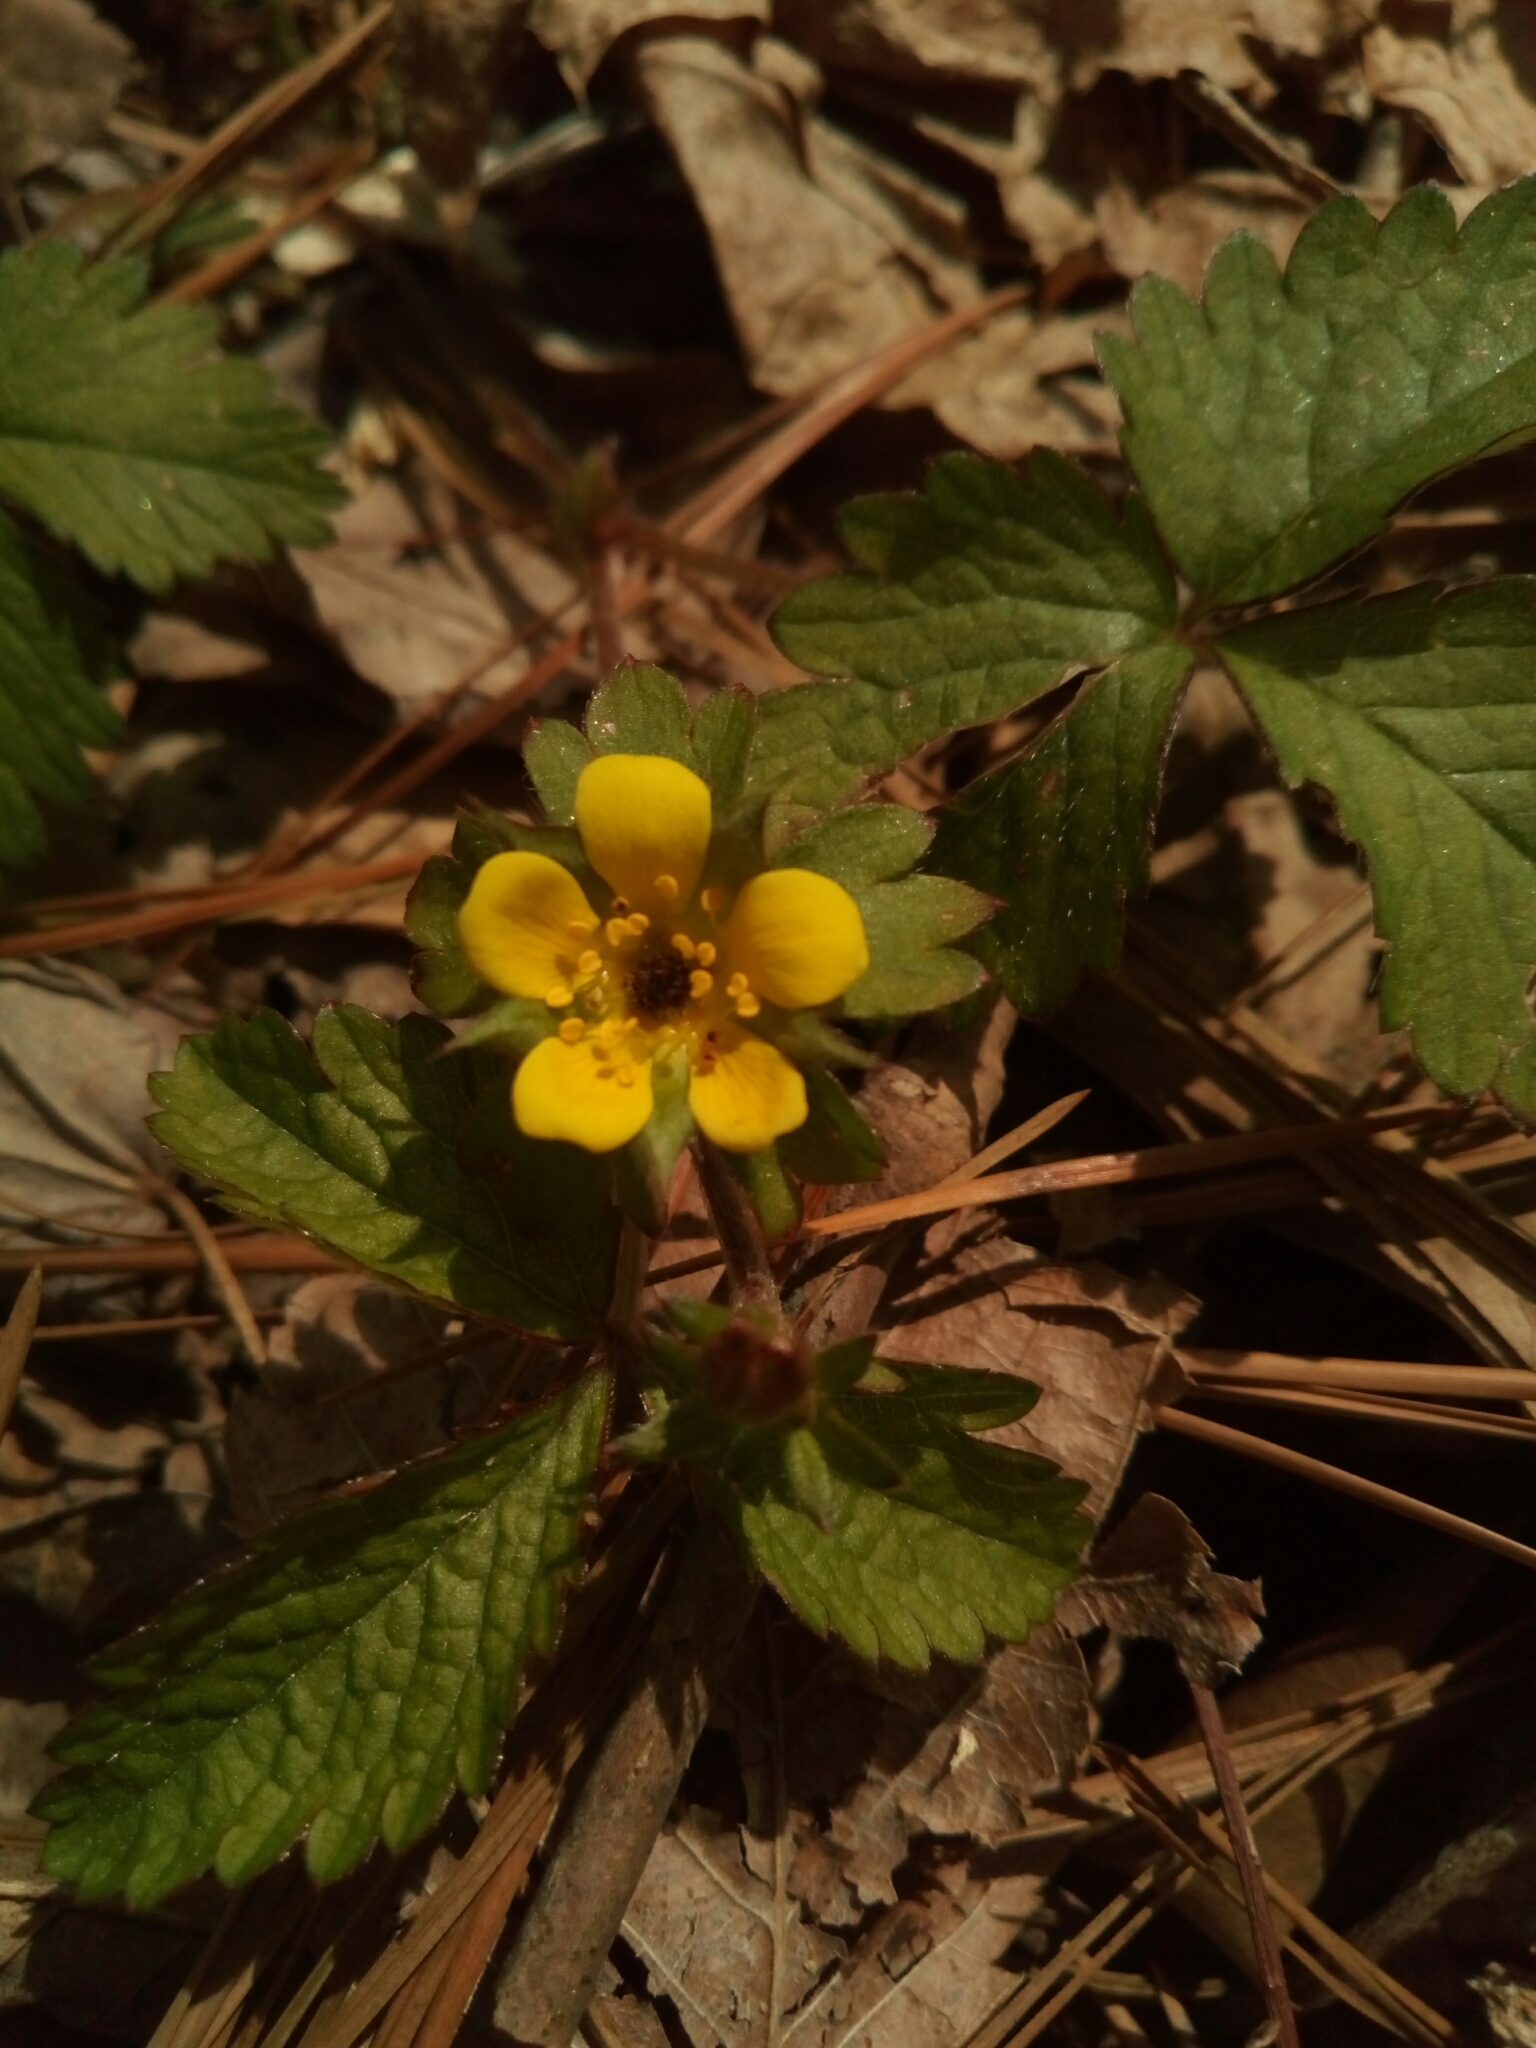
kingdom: Plantae
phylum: Tracheophyta
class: Magnoliopsida
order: Rosales
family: Rosaceae
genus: Potentilla
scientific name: Potentilla indica
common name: Yellow-flowered strawberry
